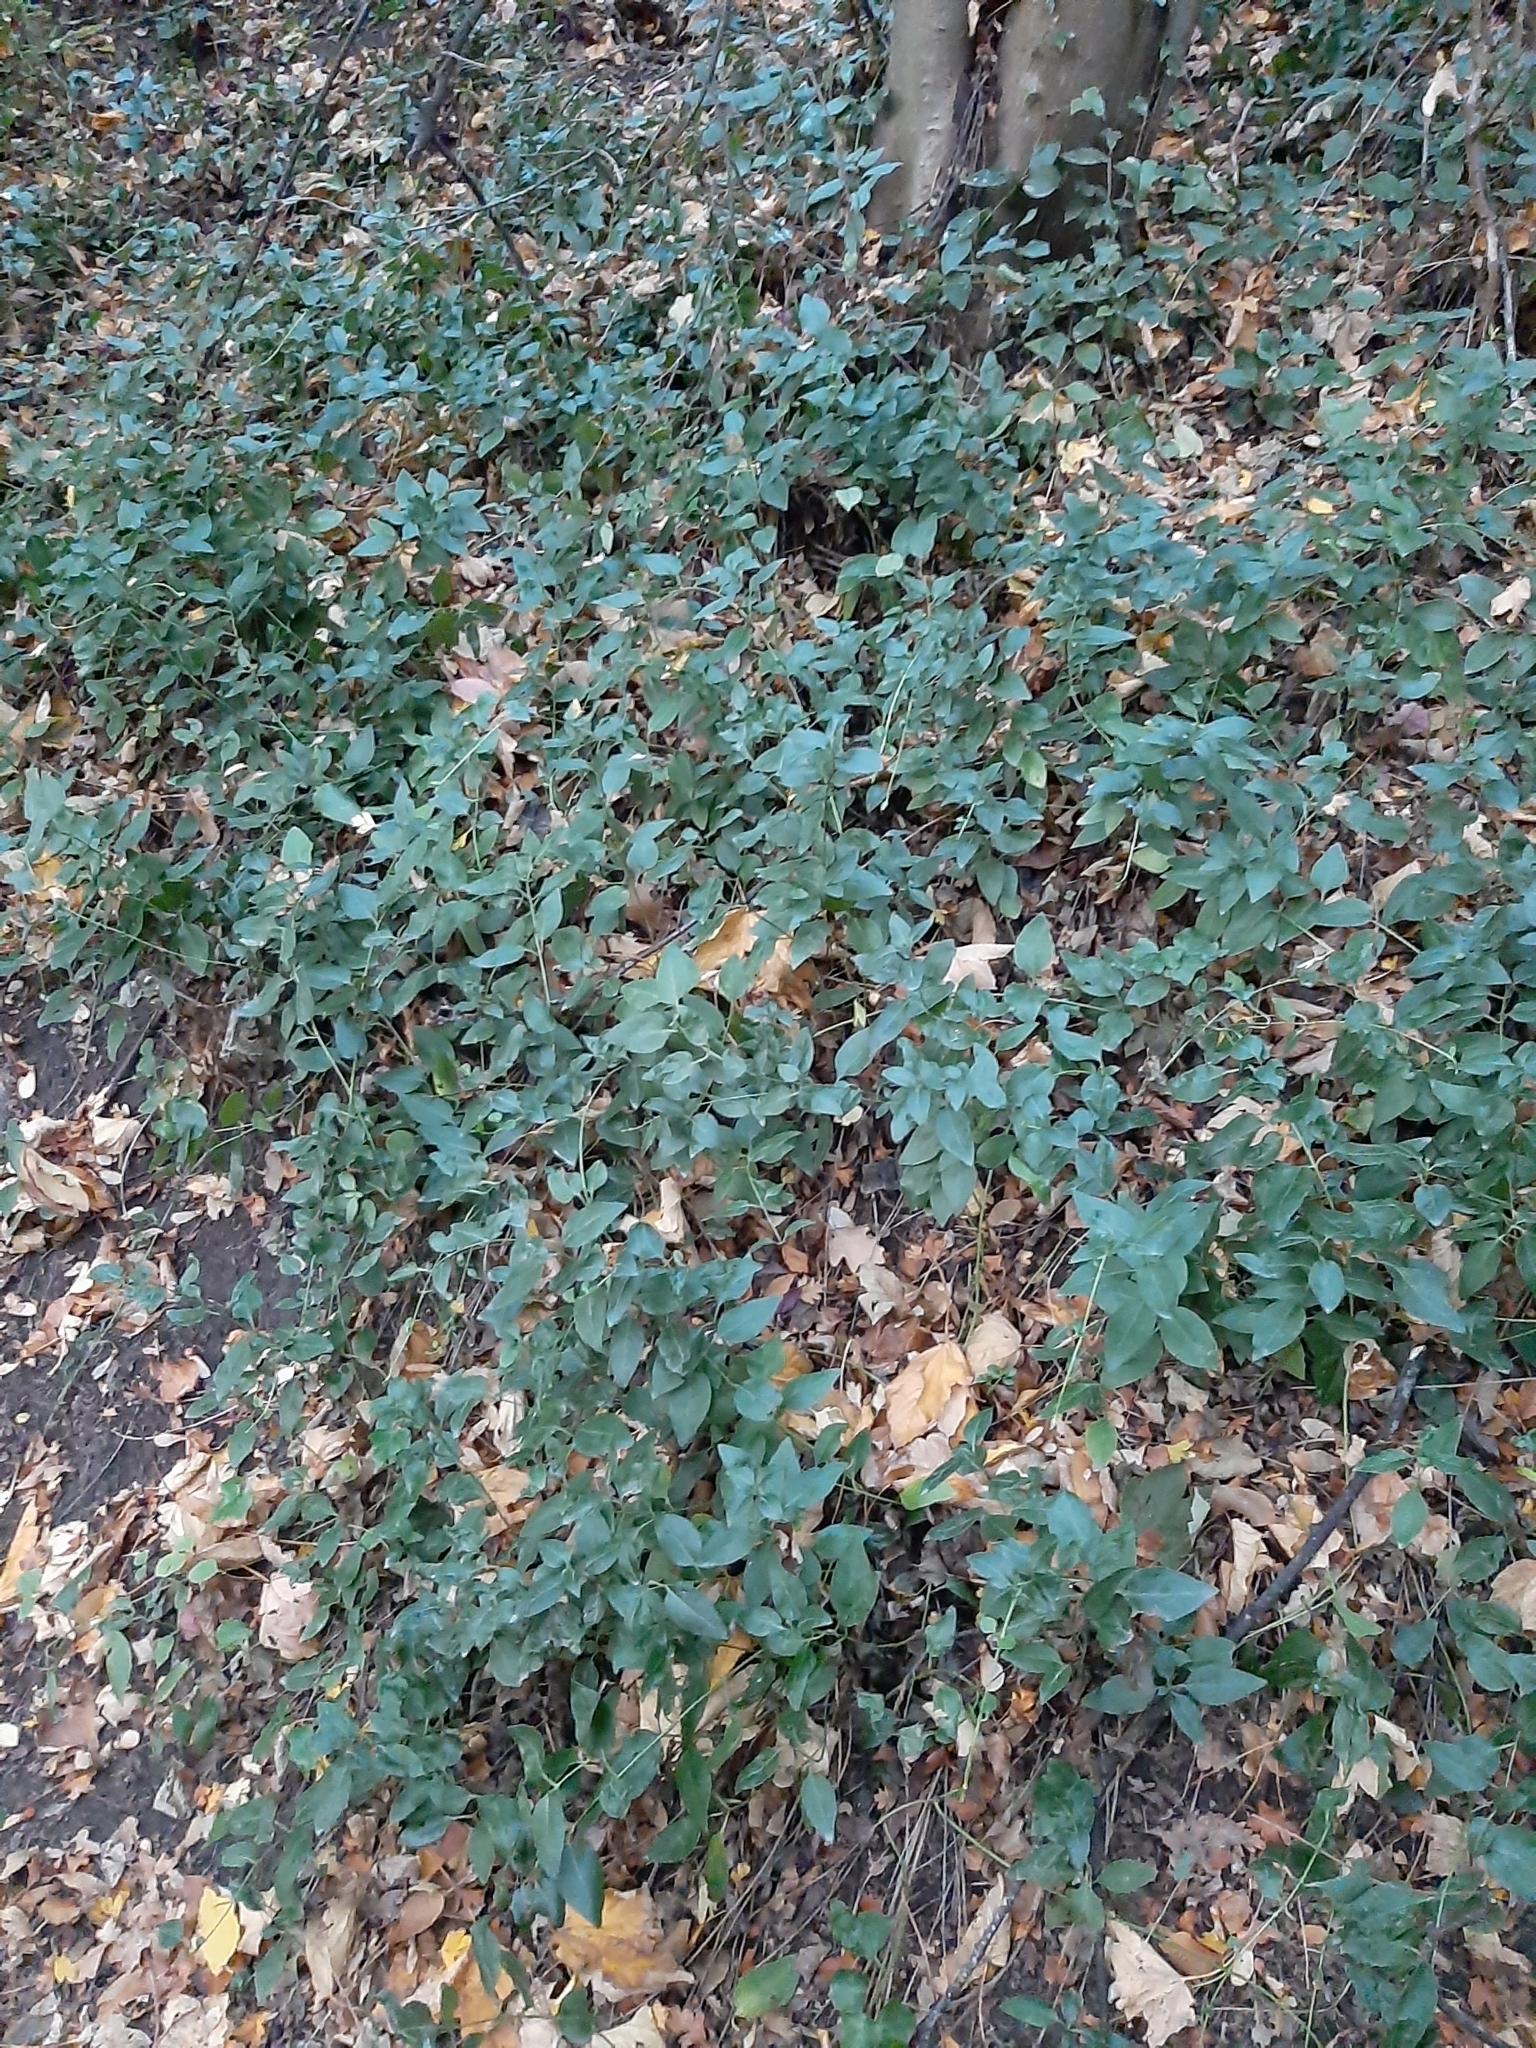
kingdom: Plantae
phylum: Tracheophyta
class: Magnoliopsida
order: Gentianales
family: Apocynaceae
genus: Vinca
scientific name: Vinca major
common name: Greater periwinkle
